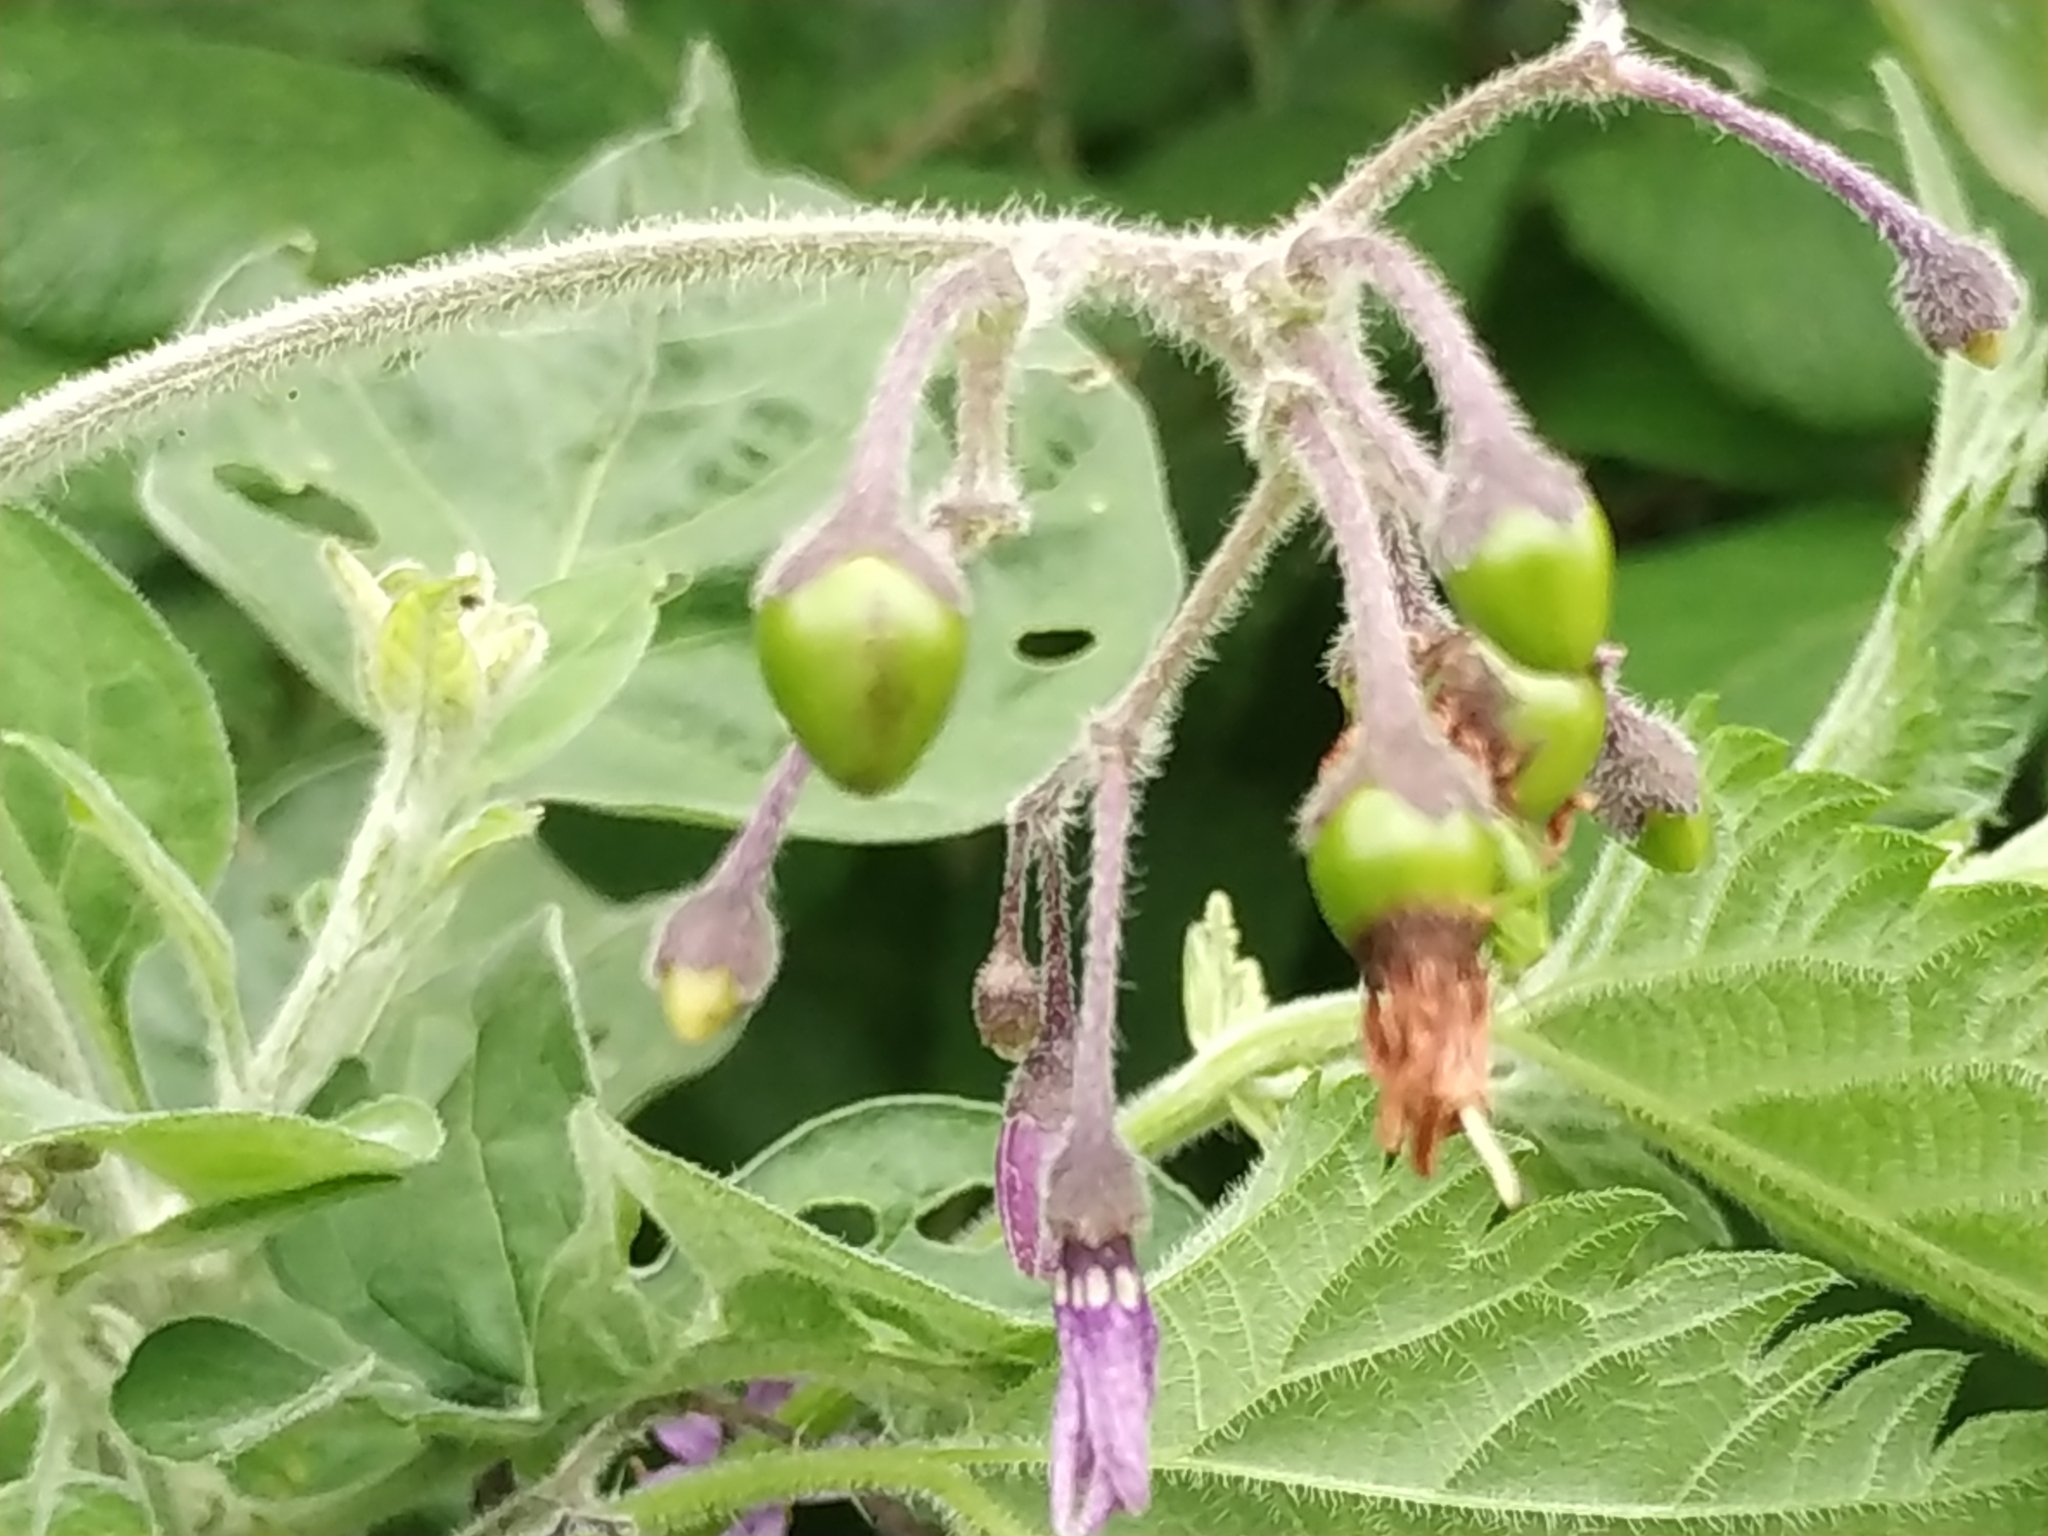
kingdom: Plantae
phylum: Tracheophyta
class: Magnoliopsida
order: Solanales
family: Solanaceae
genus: Solanum
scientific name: Solanum dulcamara
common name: Climbing nightshade
